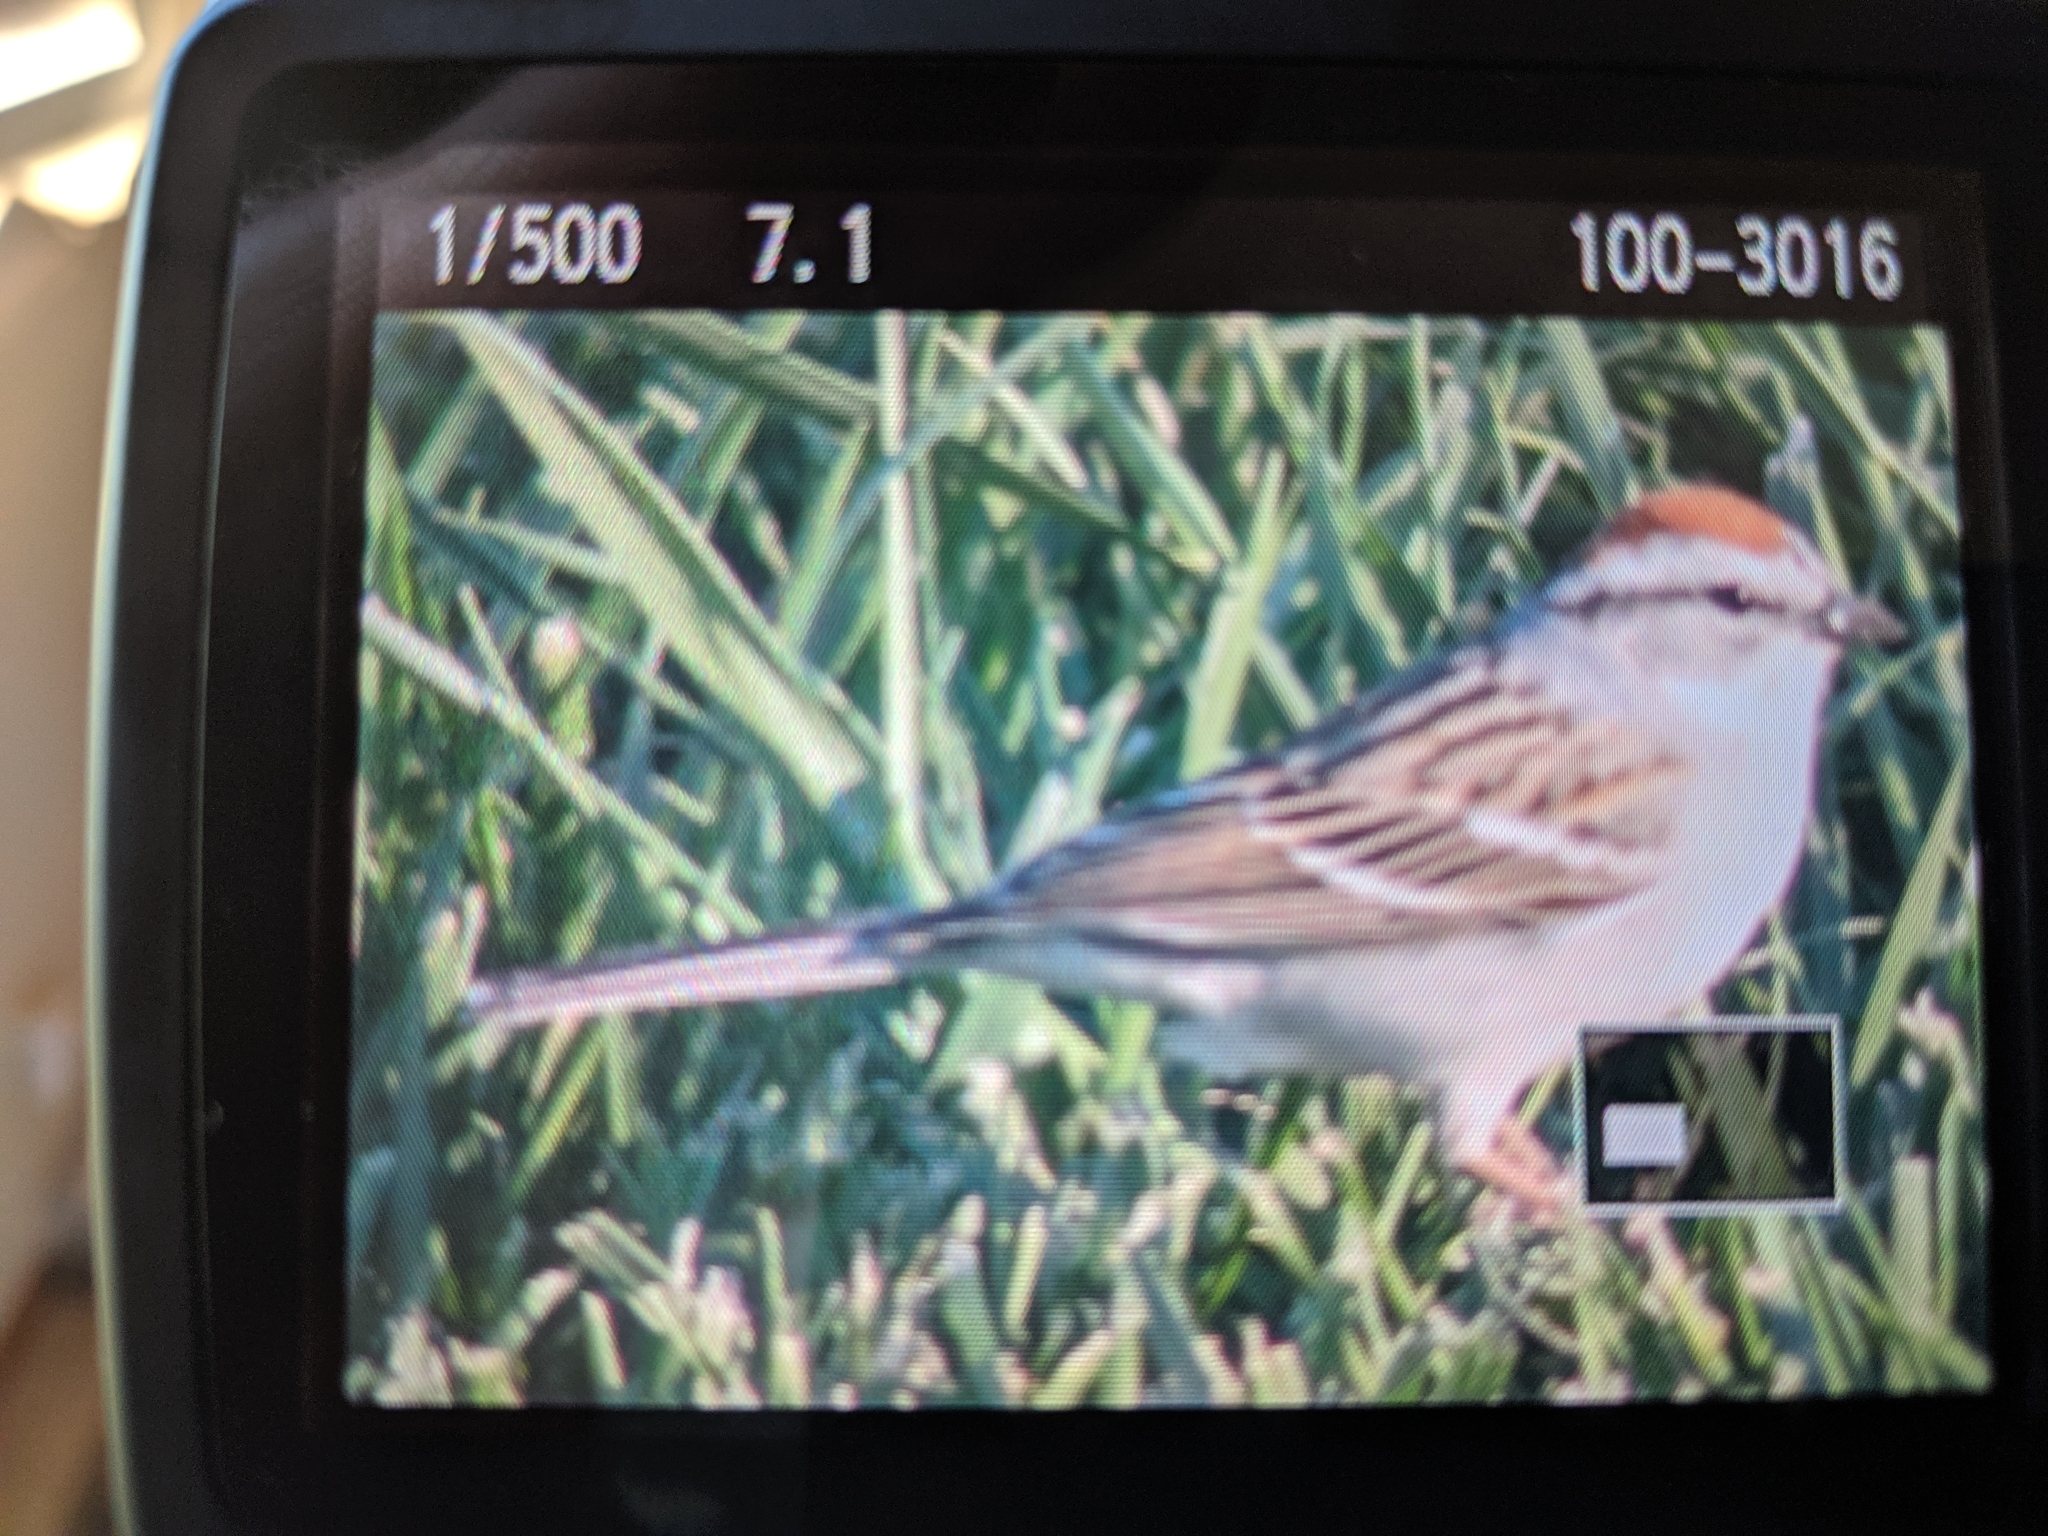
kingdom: Animalia
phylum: Chordata
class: Aves
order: Passeriformes
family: Passerellidae
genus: Spizella
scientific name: Spizella passerina
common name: Chipping sparrow
